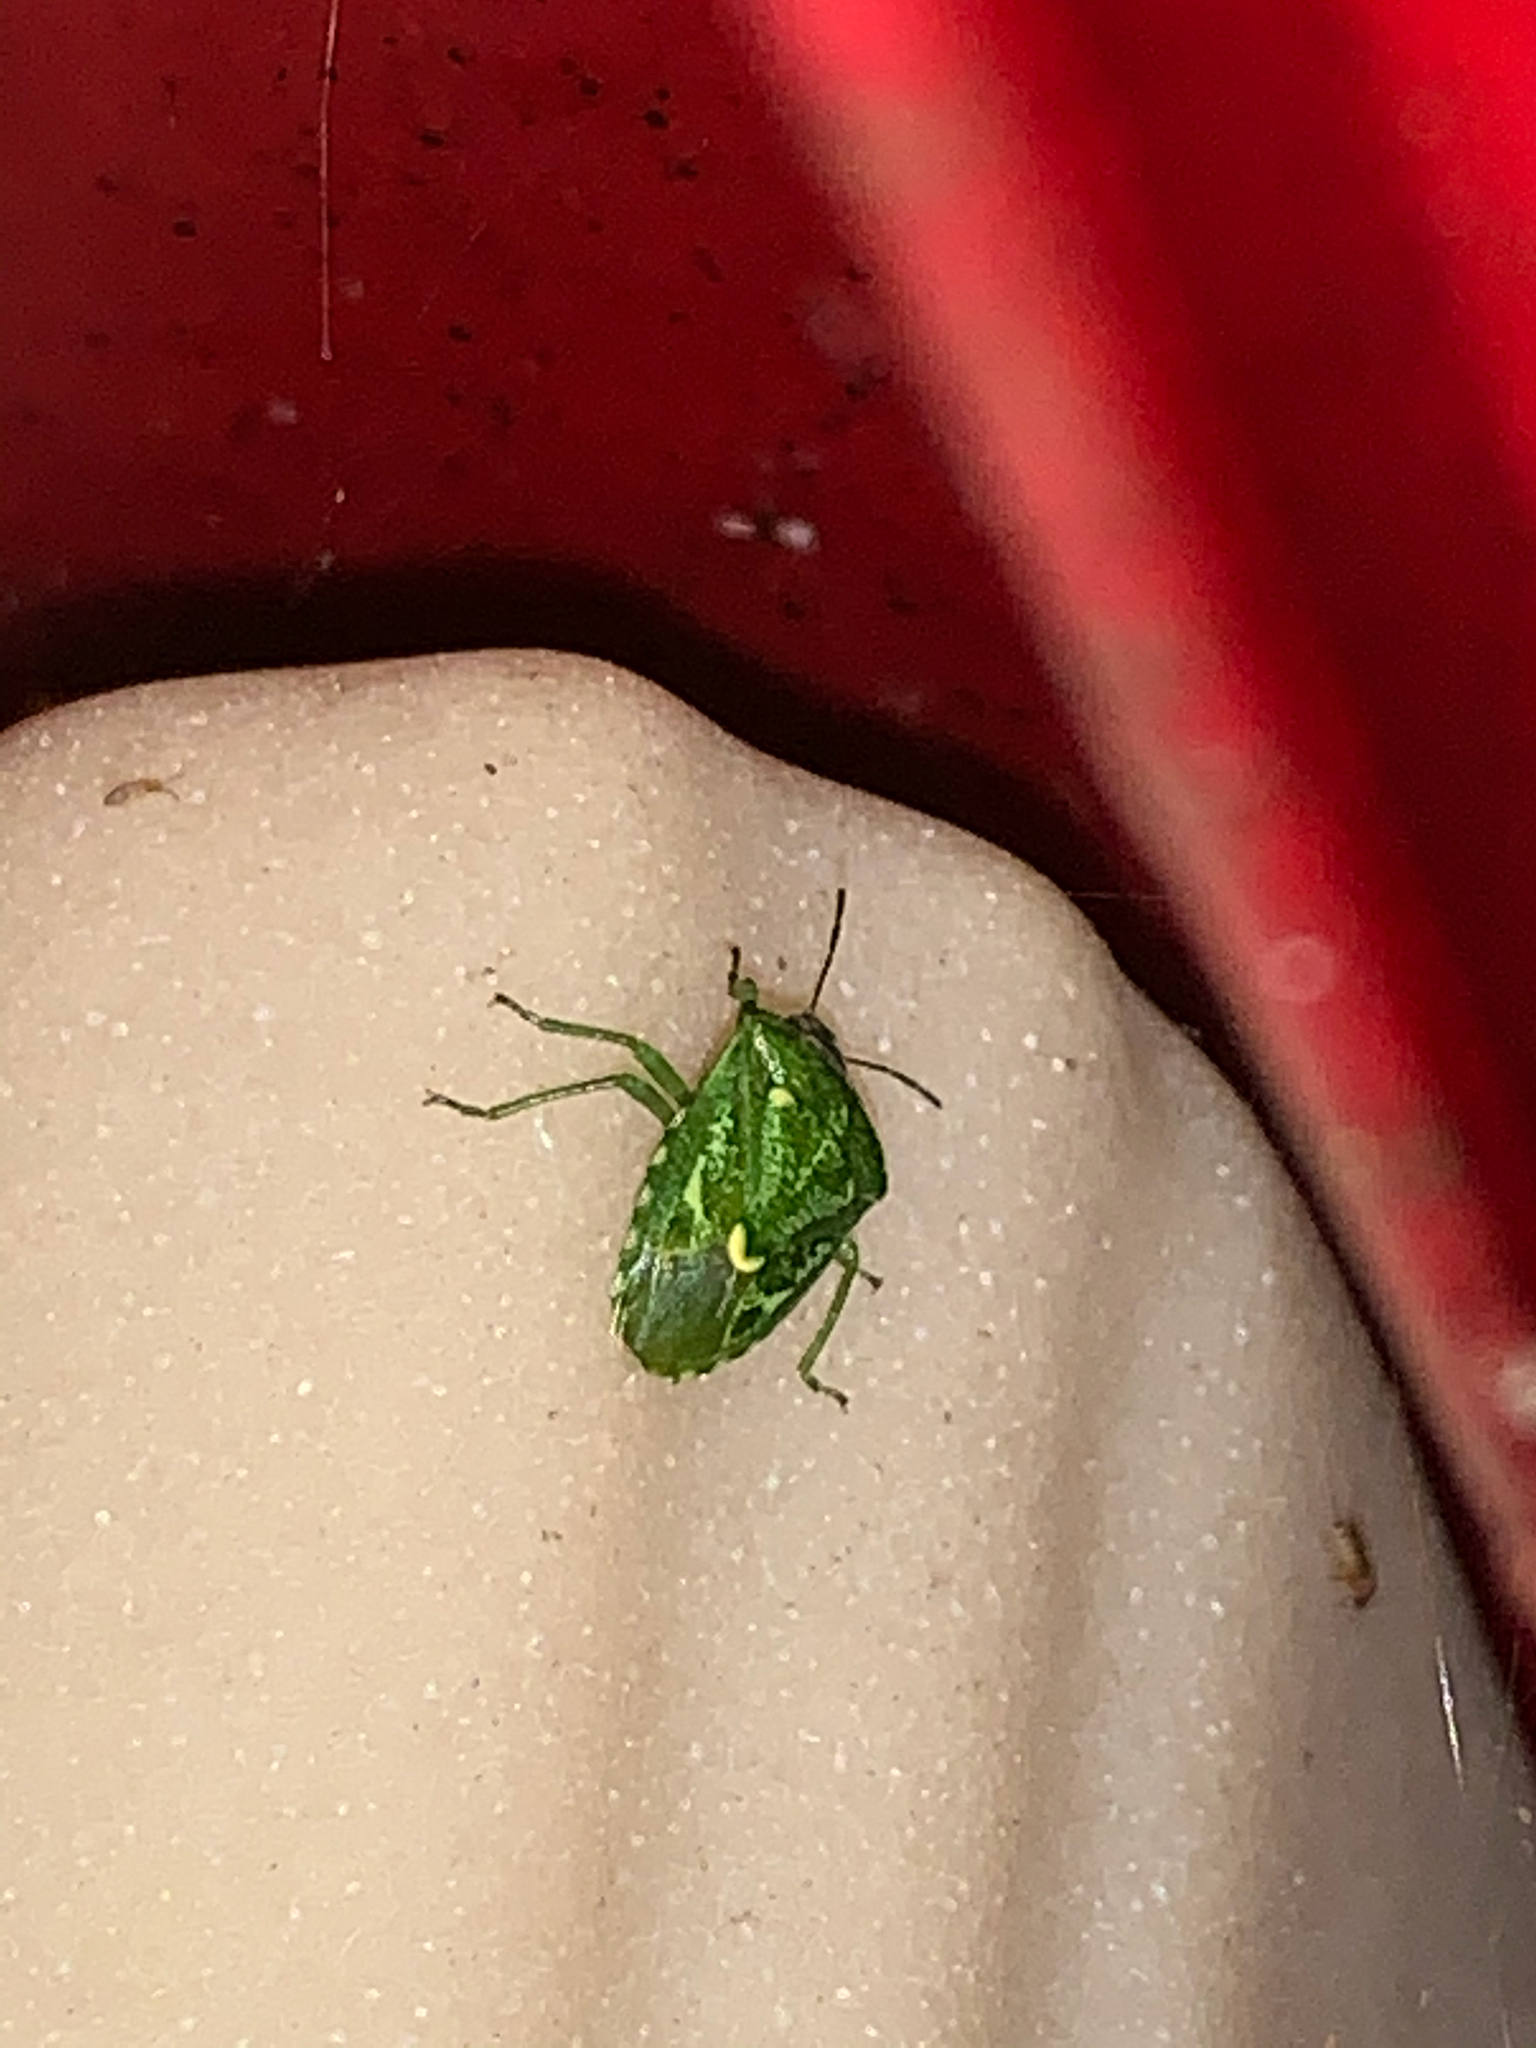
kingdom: Animalia
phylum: Arthropoda
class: Insecta
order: Hemiptera
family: Pentatomidae
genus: Banasa
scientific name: Banasa euchlora
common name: Cedar berry bug
